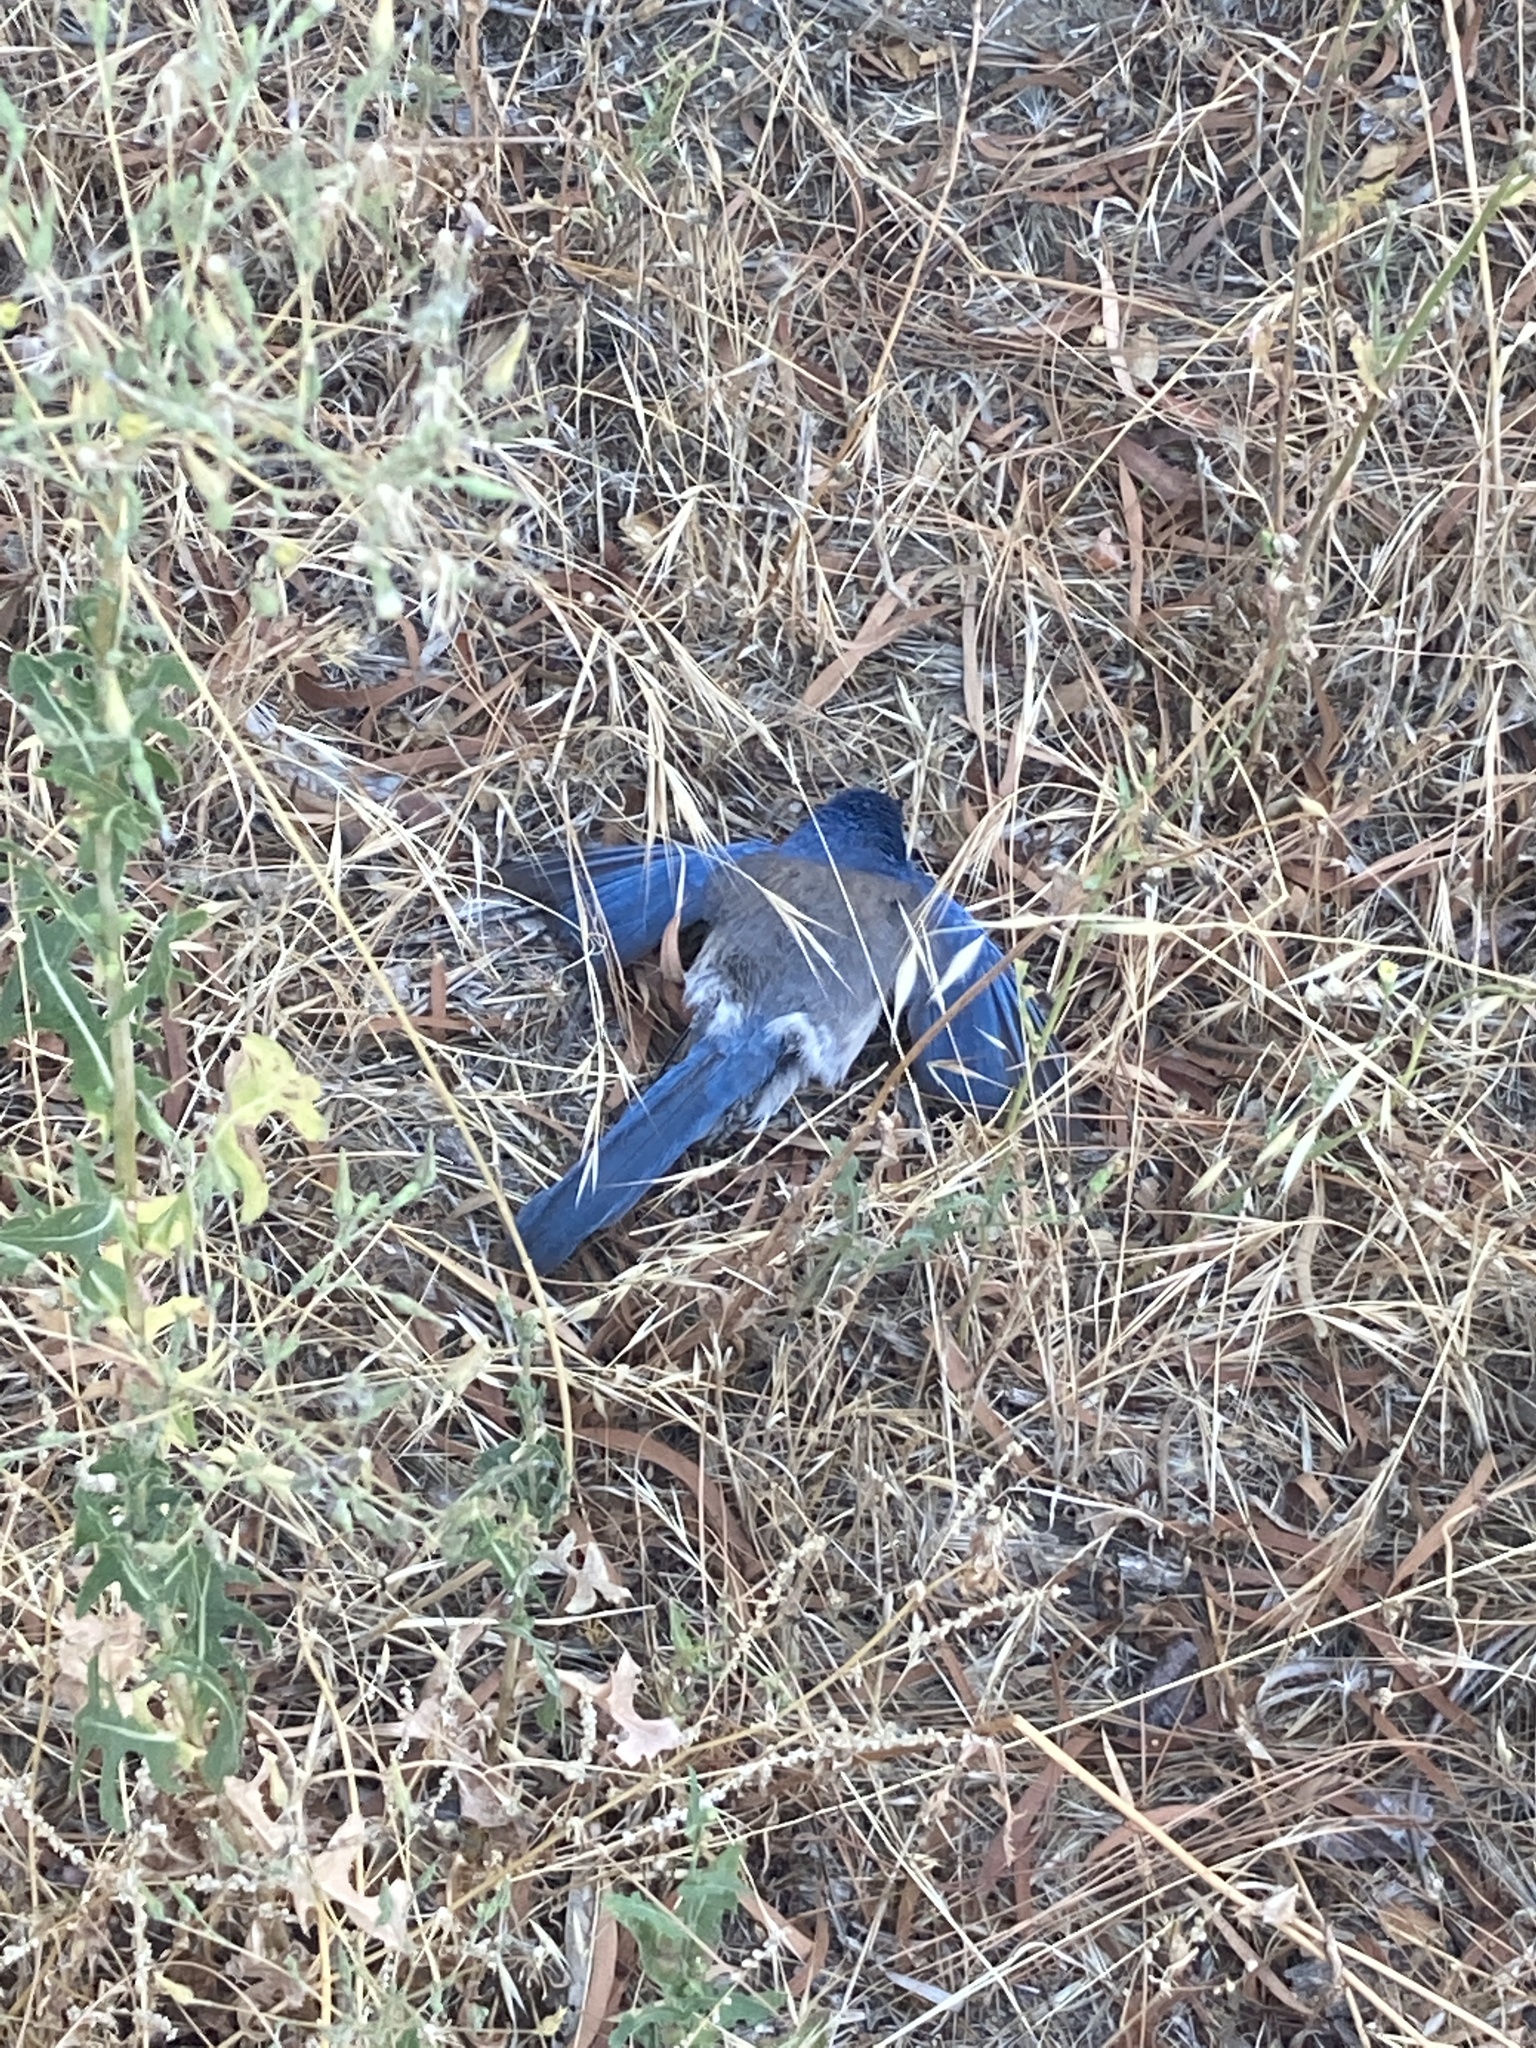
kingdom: Animalia
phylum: Chordata
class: Aves
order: Passeriformes
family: Corvidae
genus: Aphelocoma
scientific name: Aphelocoma californica
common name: California scrub-jay
